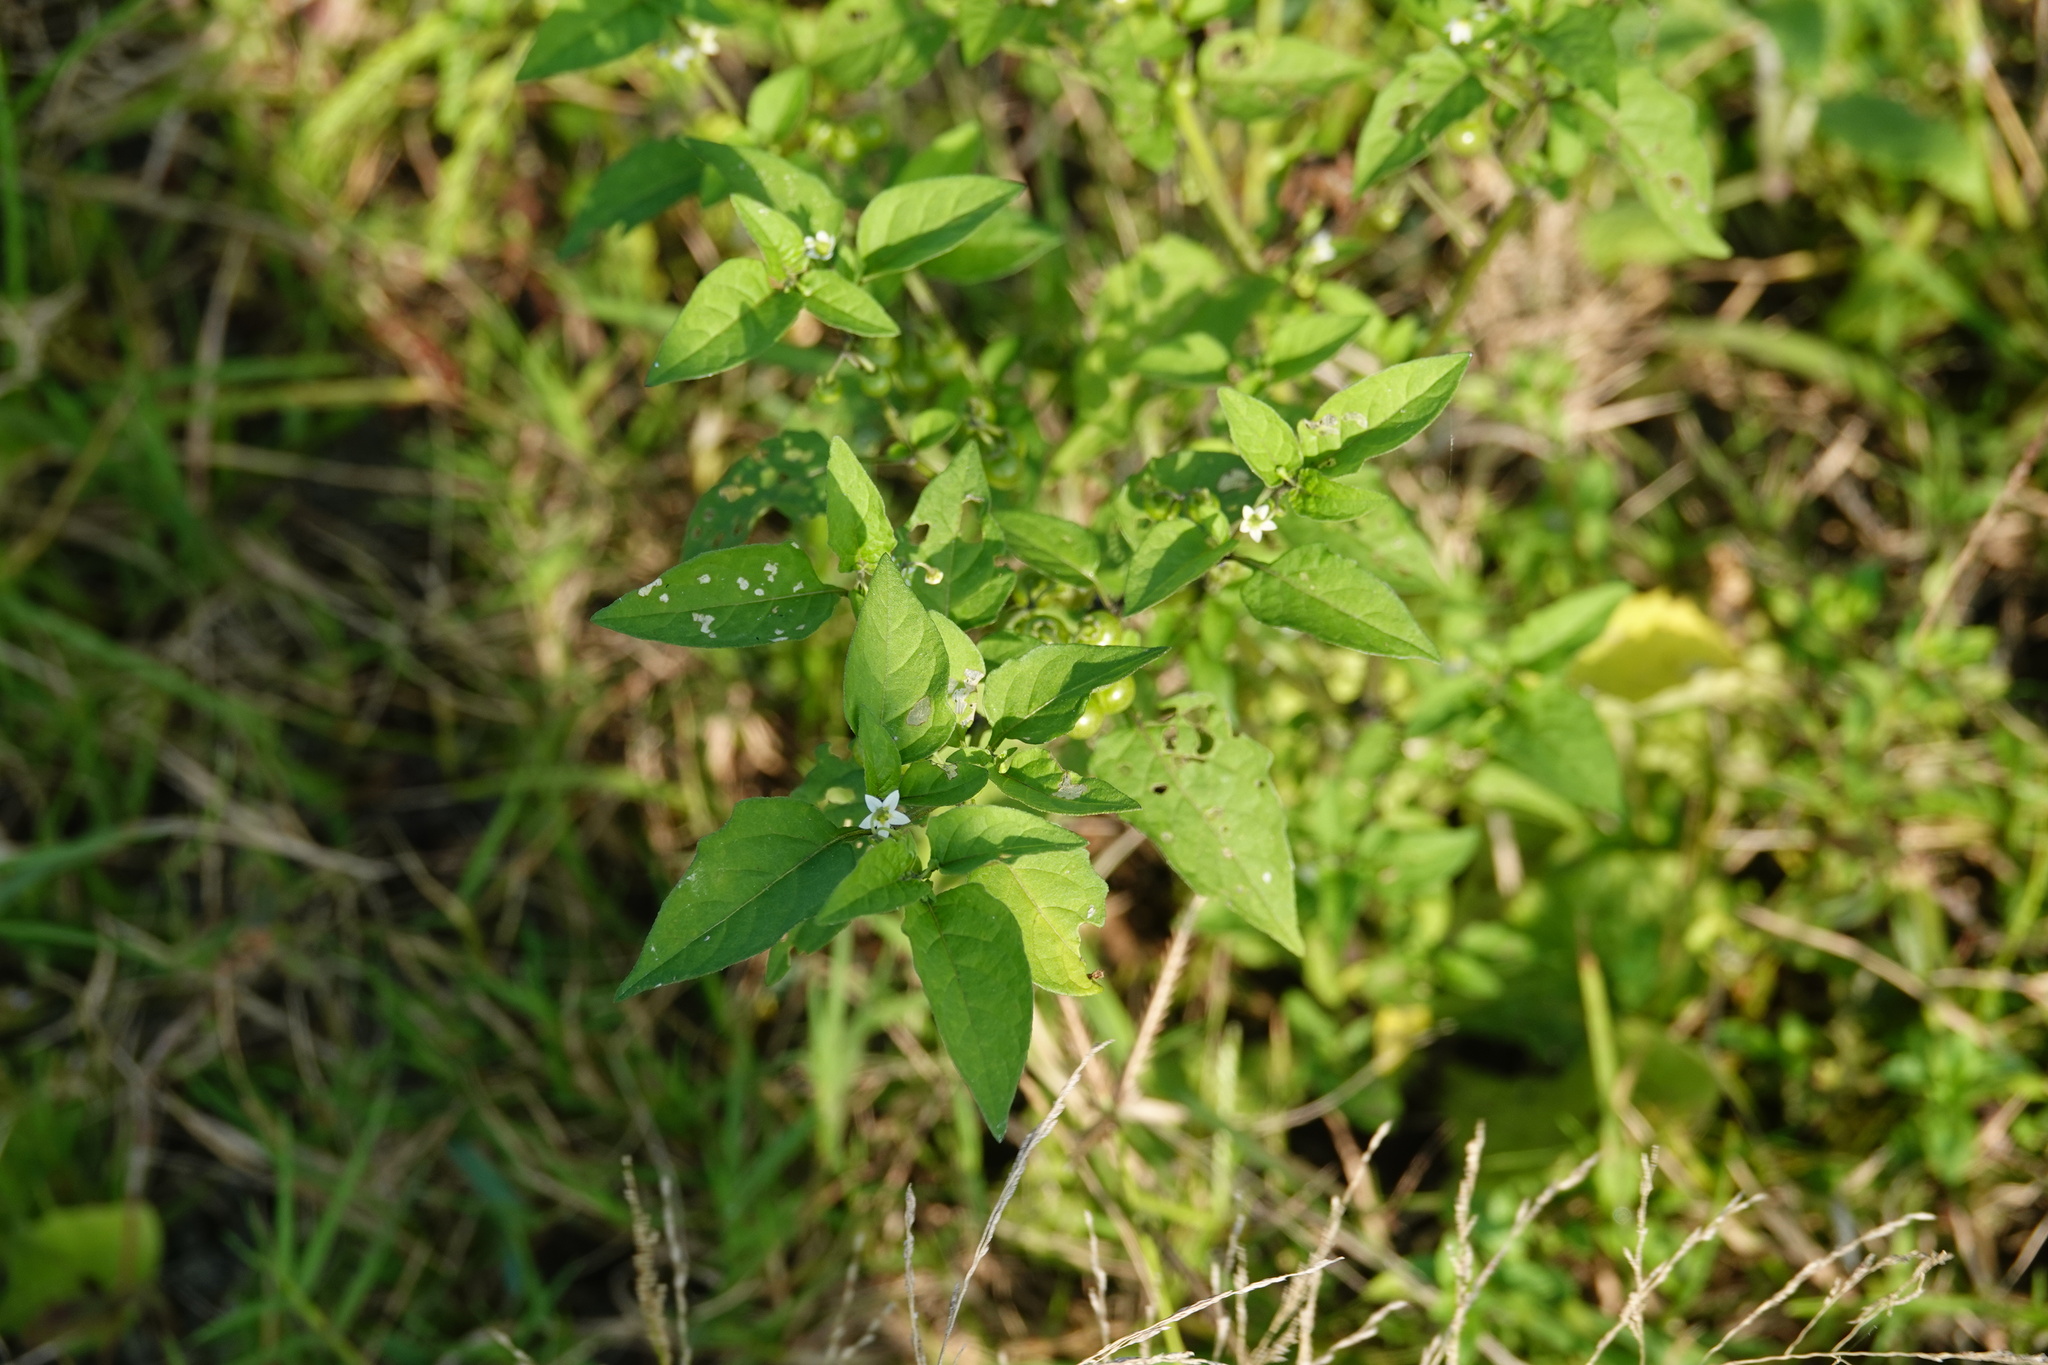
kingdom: Plantae
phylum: Tracheophyta
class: Magnoliopsida
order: Solanales
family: Solanaceae
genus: Solanum
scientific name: Solanum americanum
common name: American black nightshade
